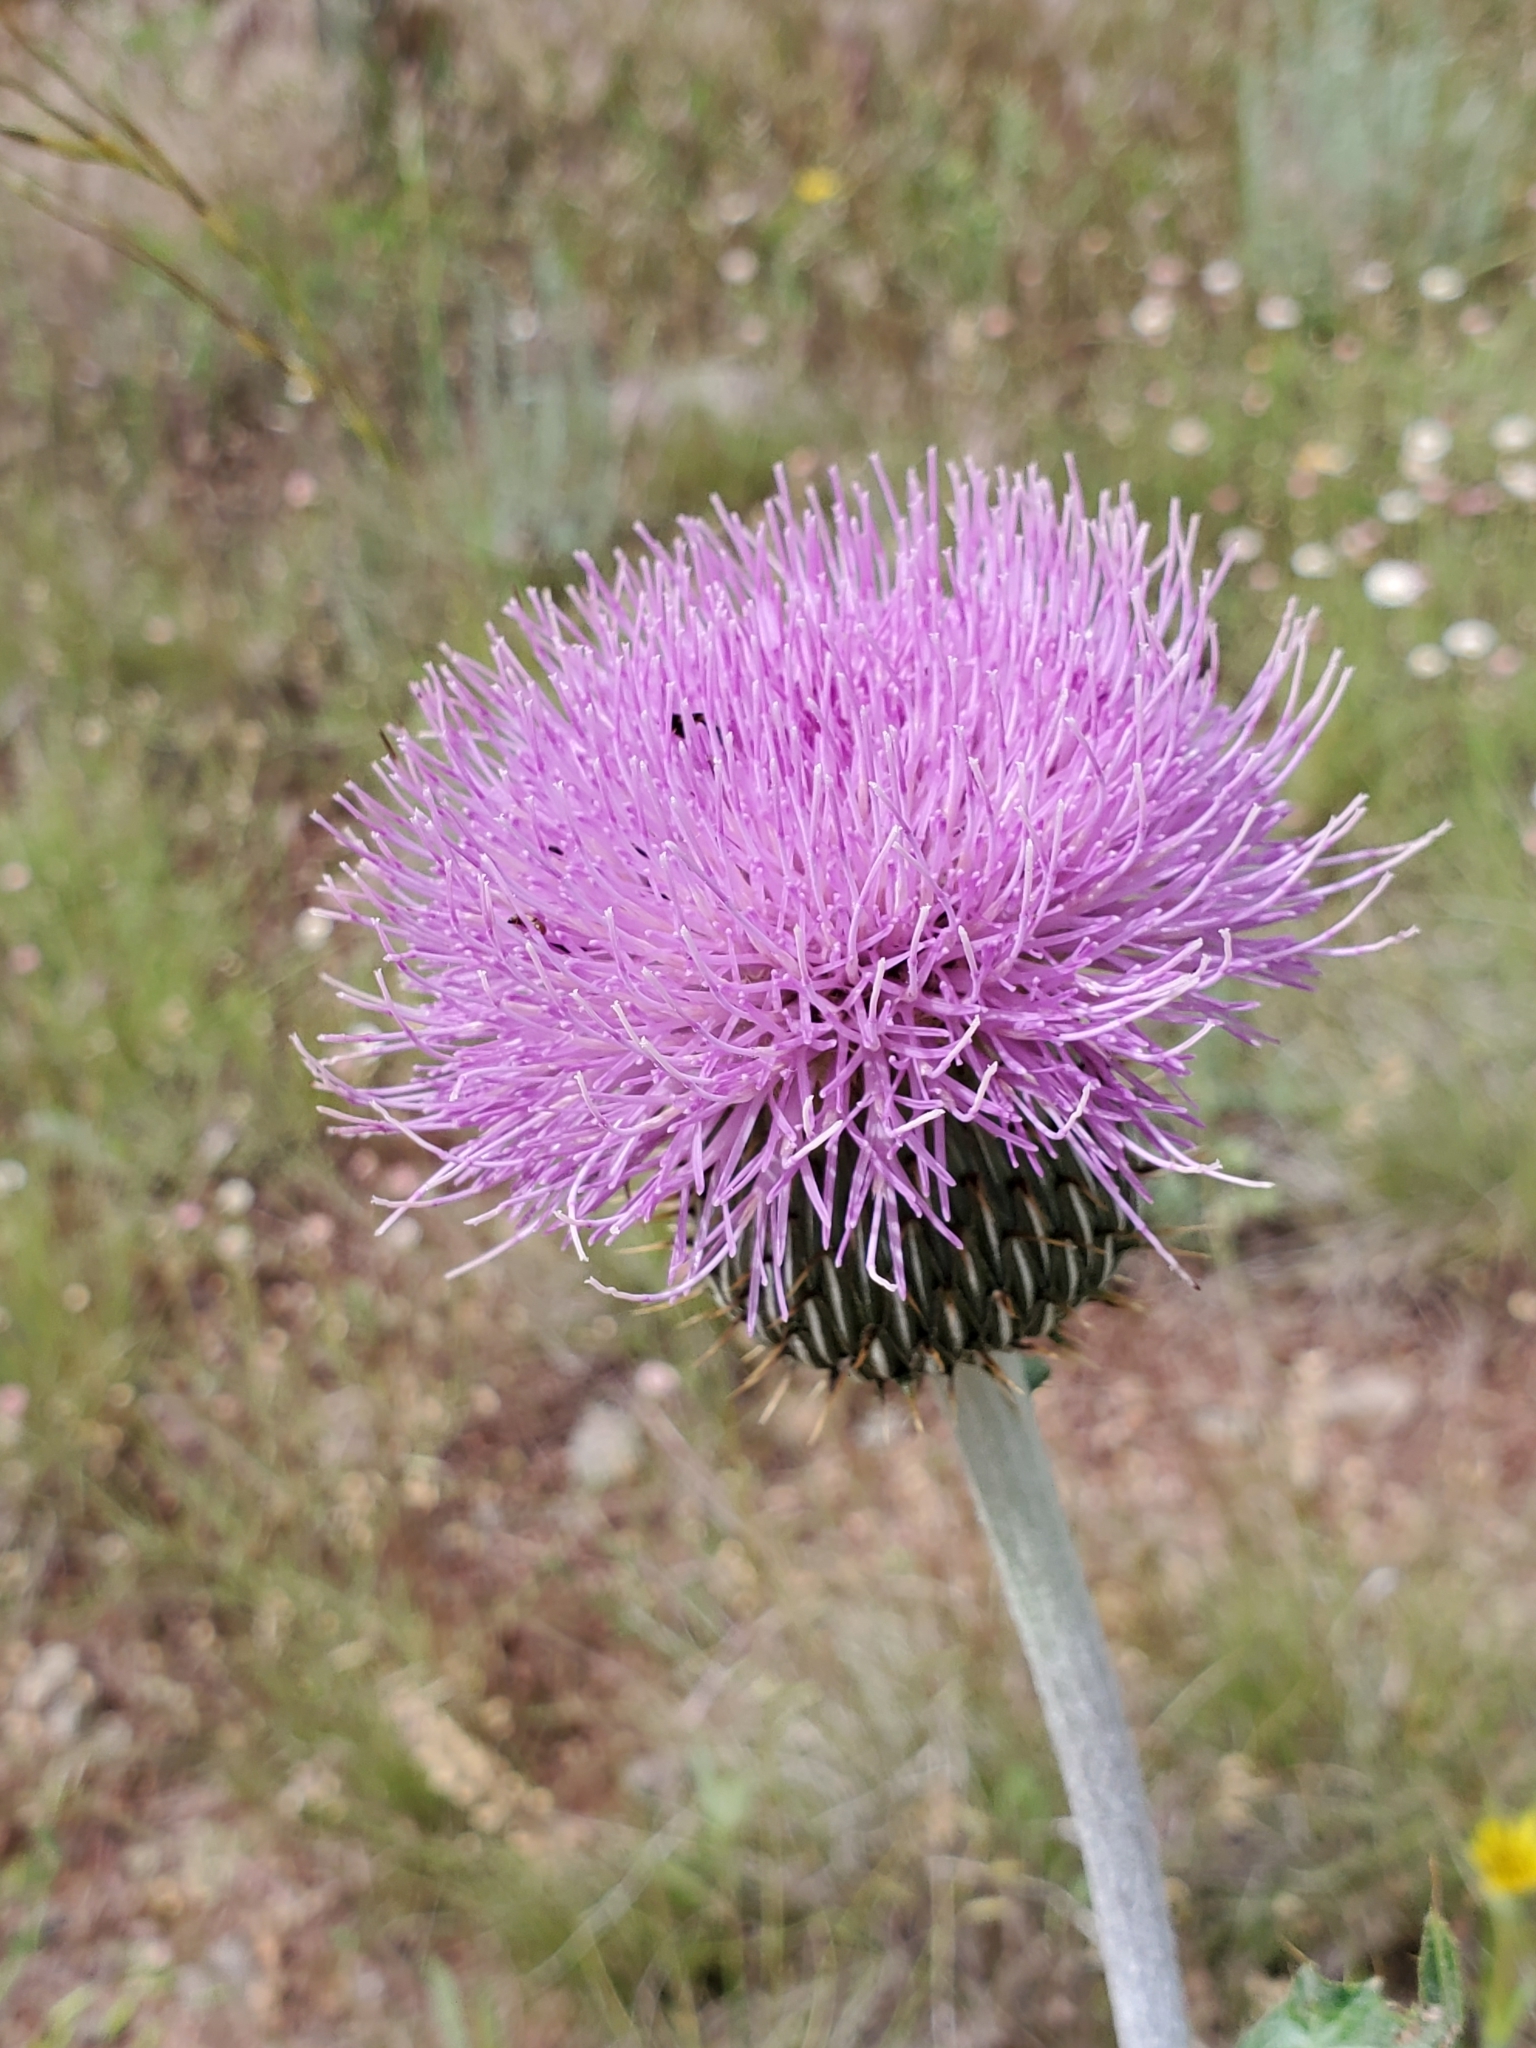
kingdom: Plantae
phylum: Tracheophyta
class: Magnoliopsida
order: Asterales
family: Asteraceae
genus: Cirsium
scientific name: Cirsium undulatum
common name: Pasture thistle
